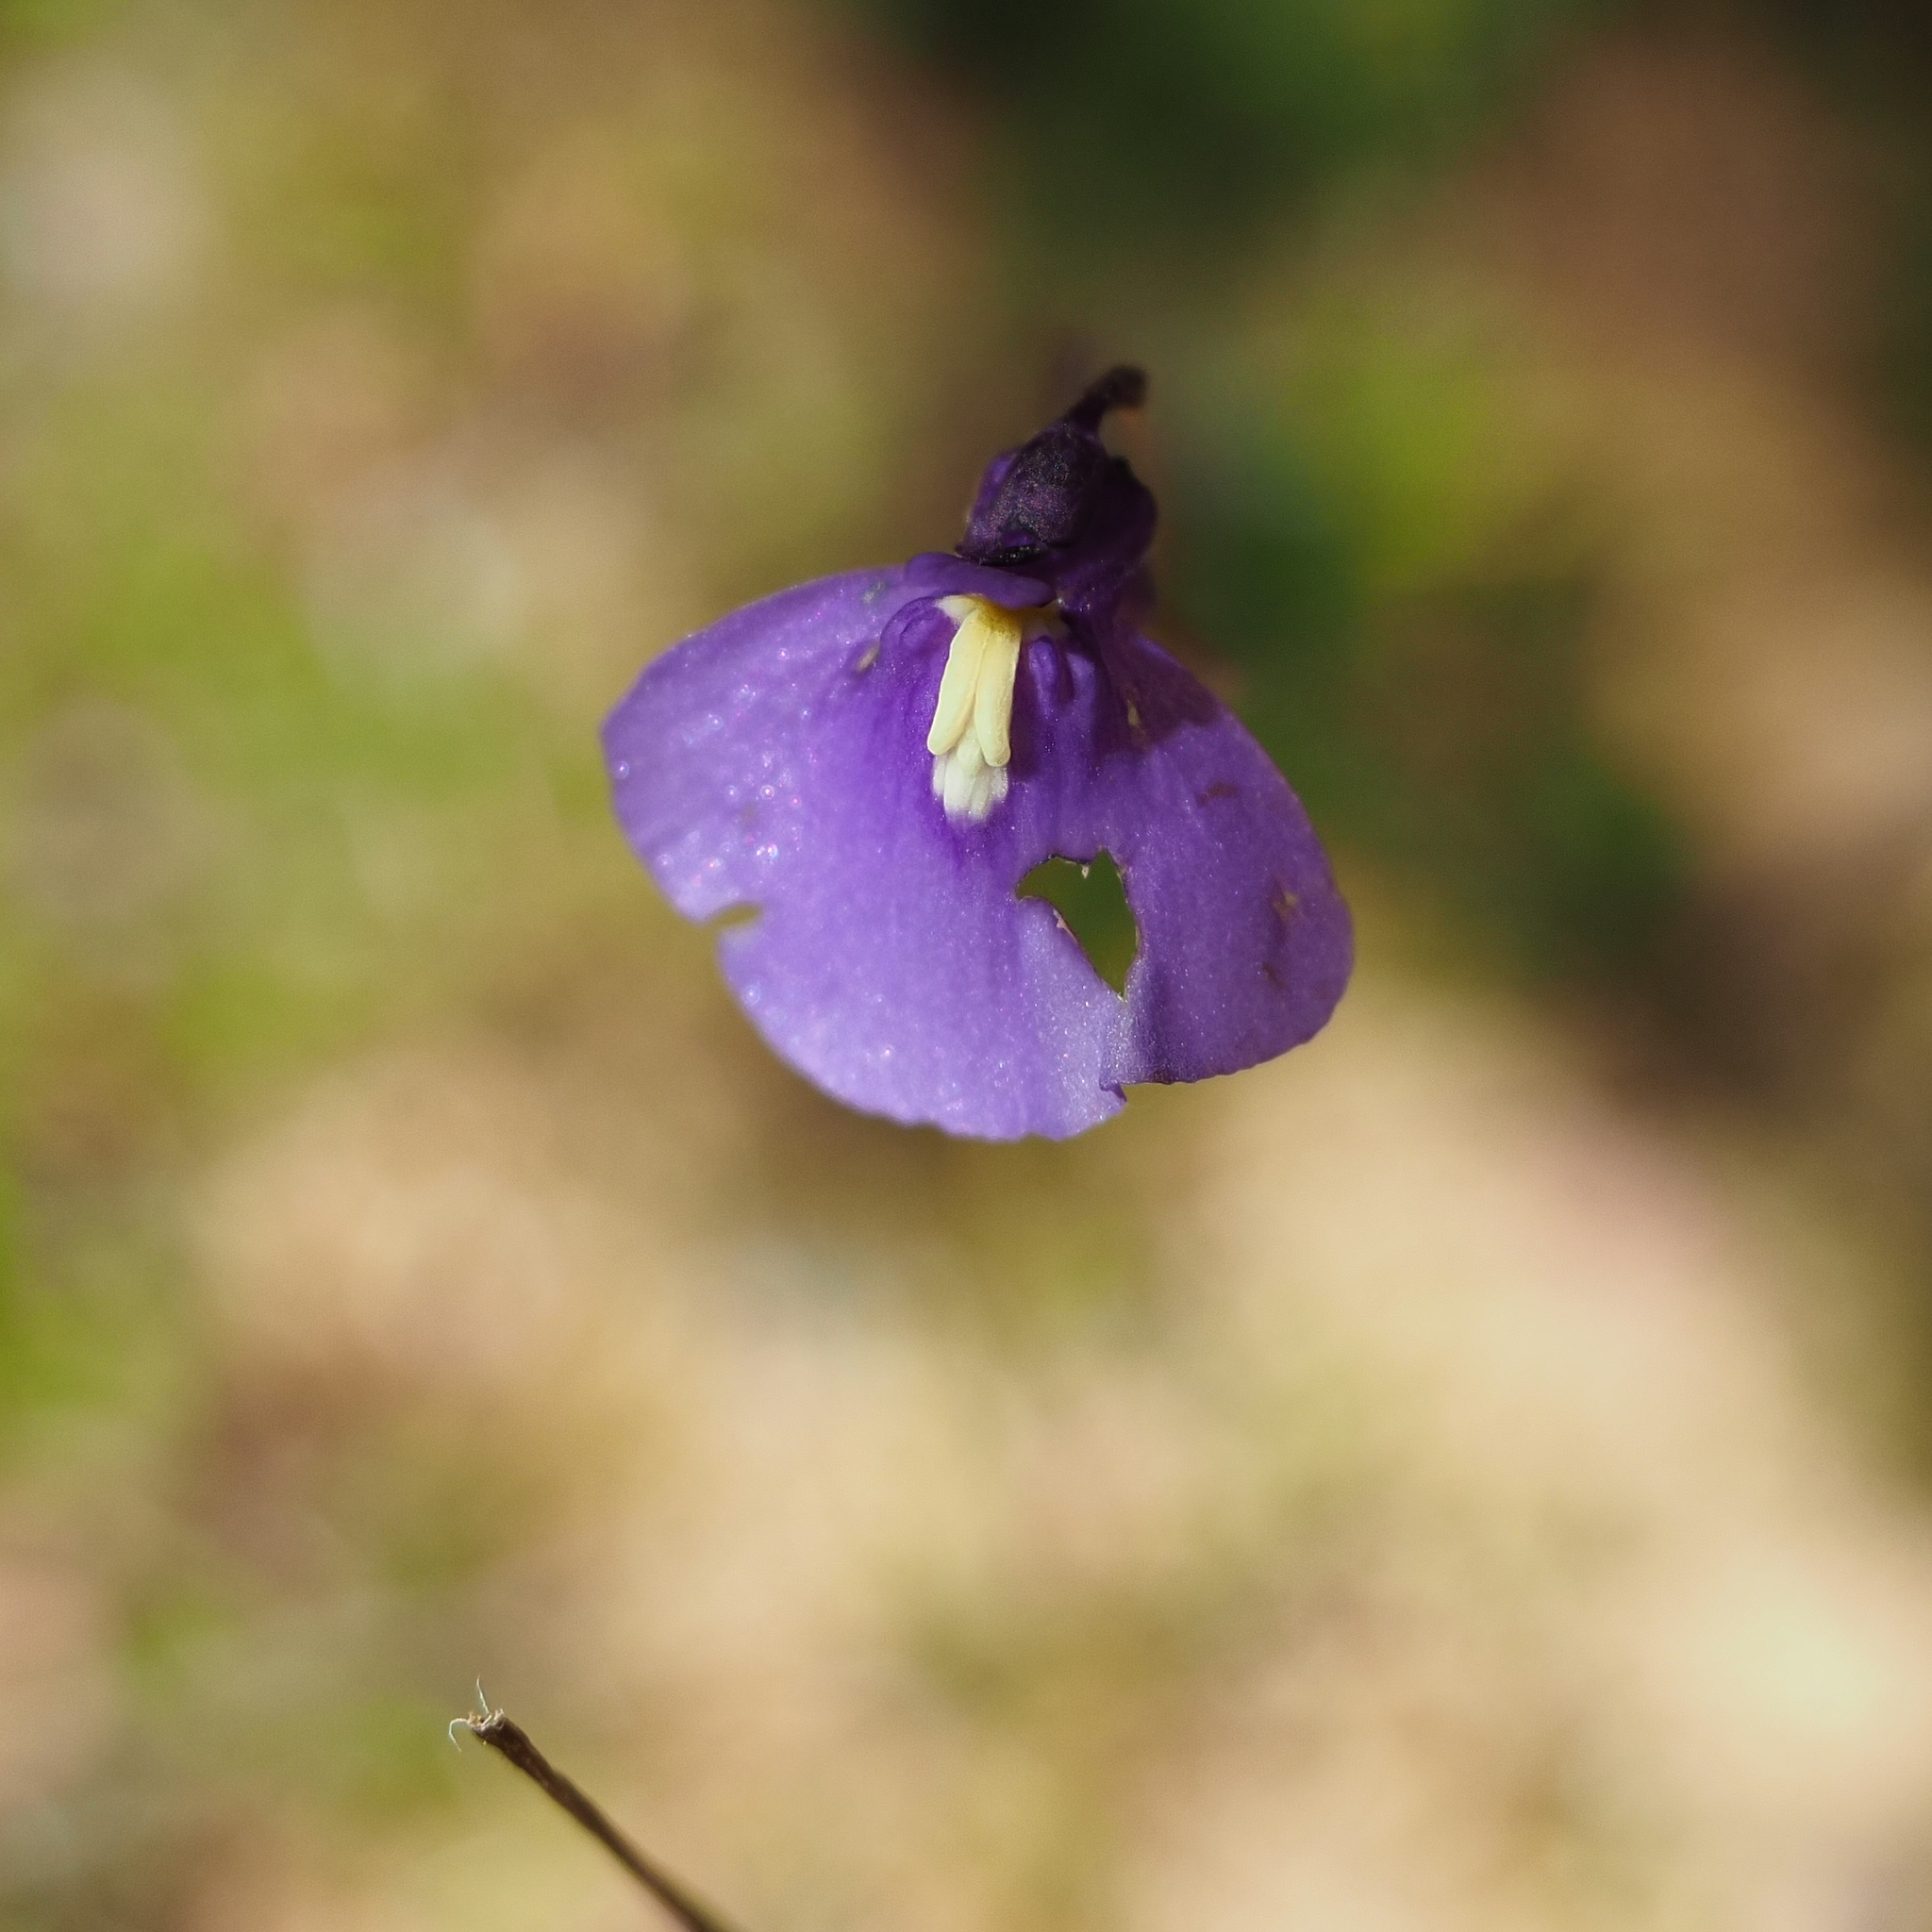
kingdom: Plantae
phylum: Tracheophyta
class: Magnoliopsida
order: Lamiales
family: Lentibulariaceae
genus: Utricularia
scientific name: Utricularia dichotoma
